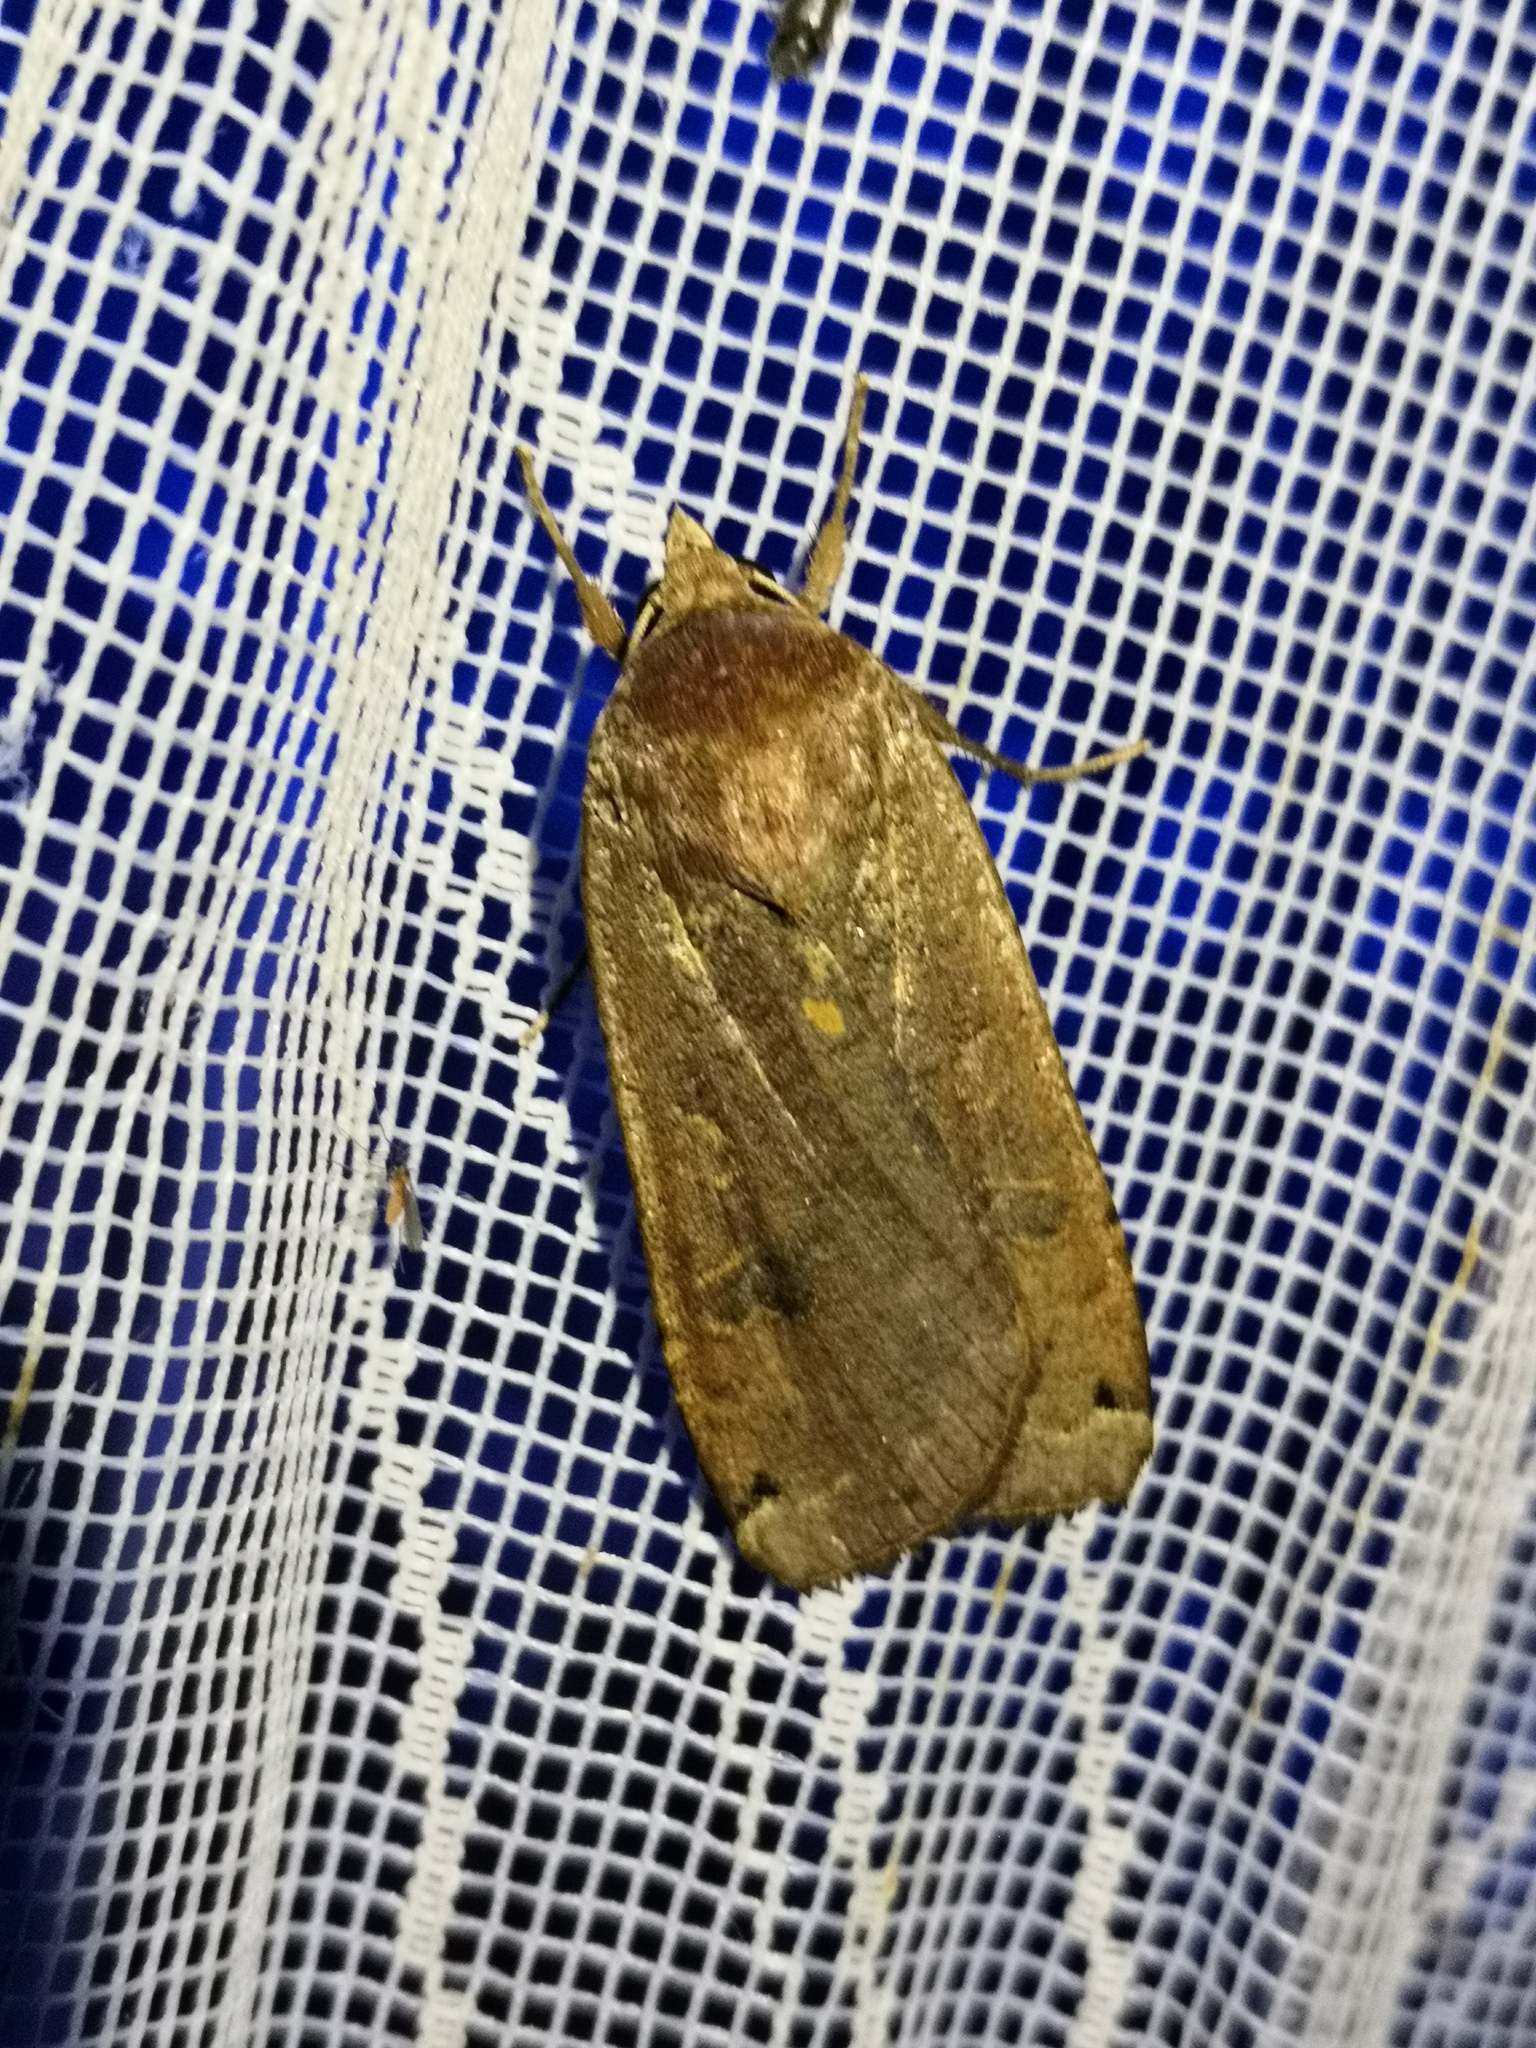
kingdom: Animalia
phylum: Arthropoda
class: Insecta
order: Lepidoptera
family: Noctuidae
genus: Noctua
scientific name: Noctua pronuba
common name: Large yellow underwing
